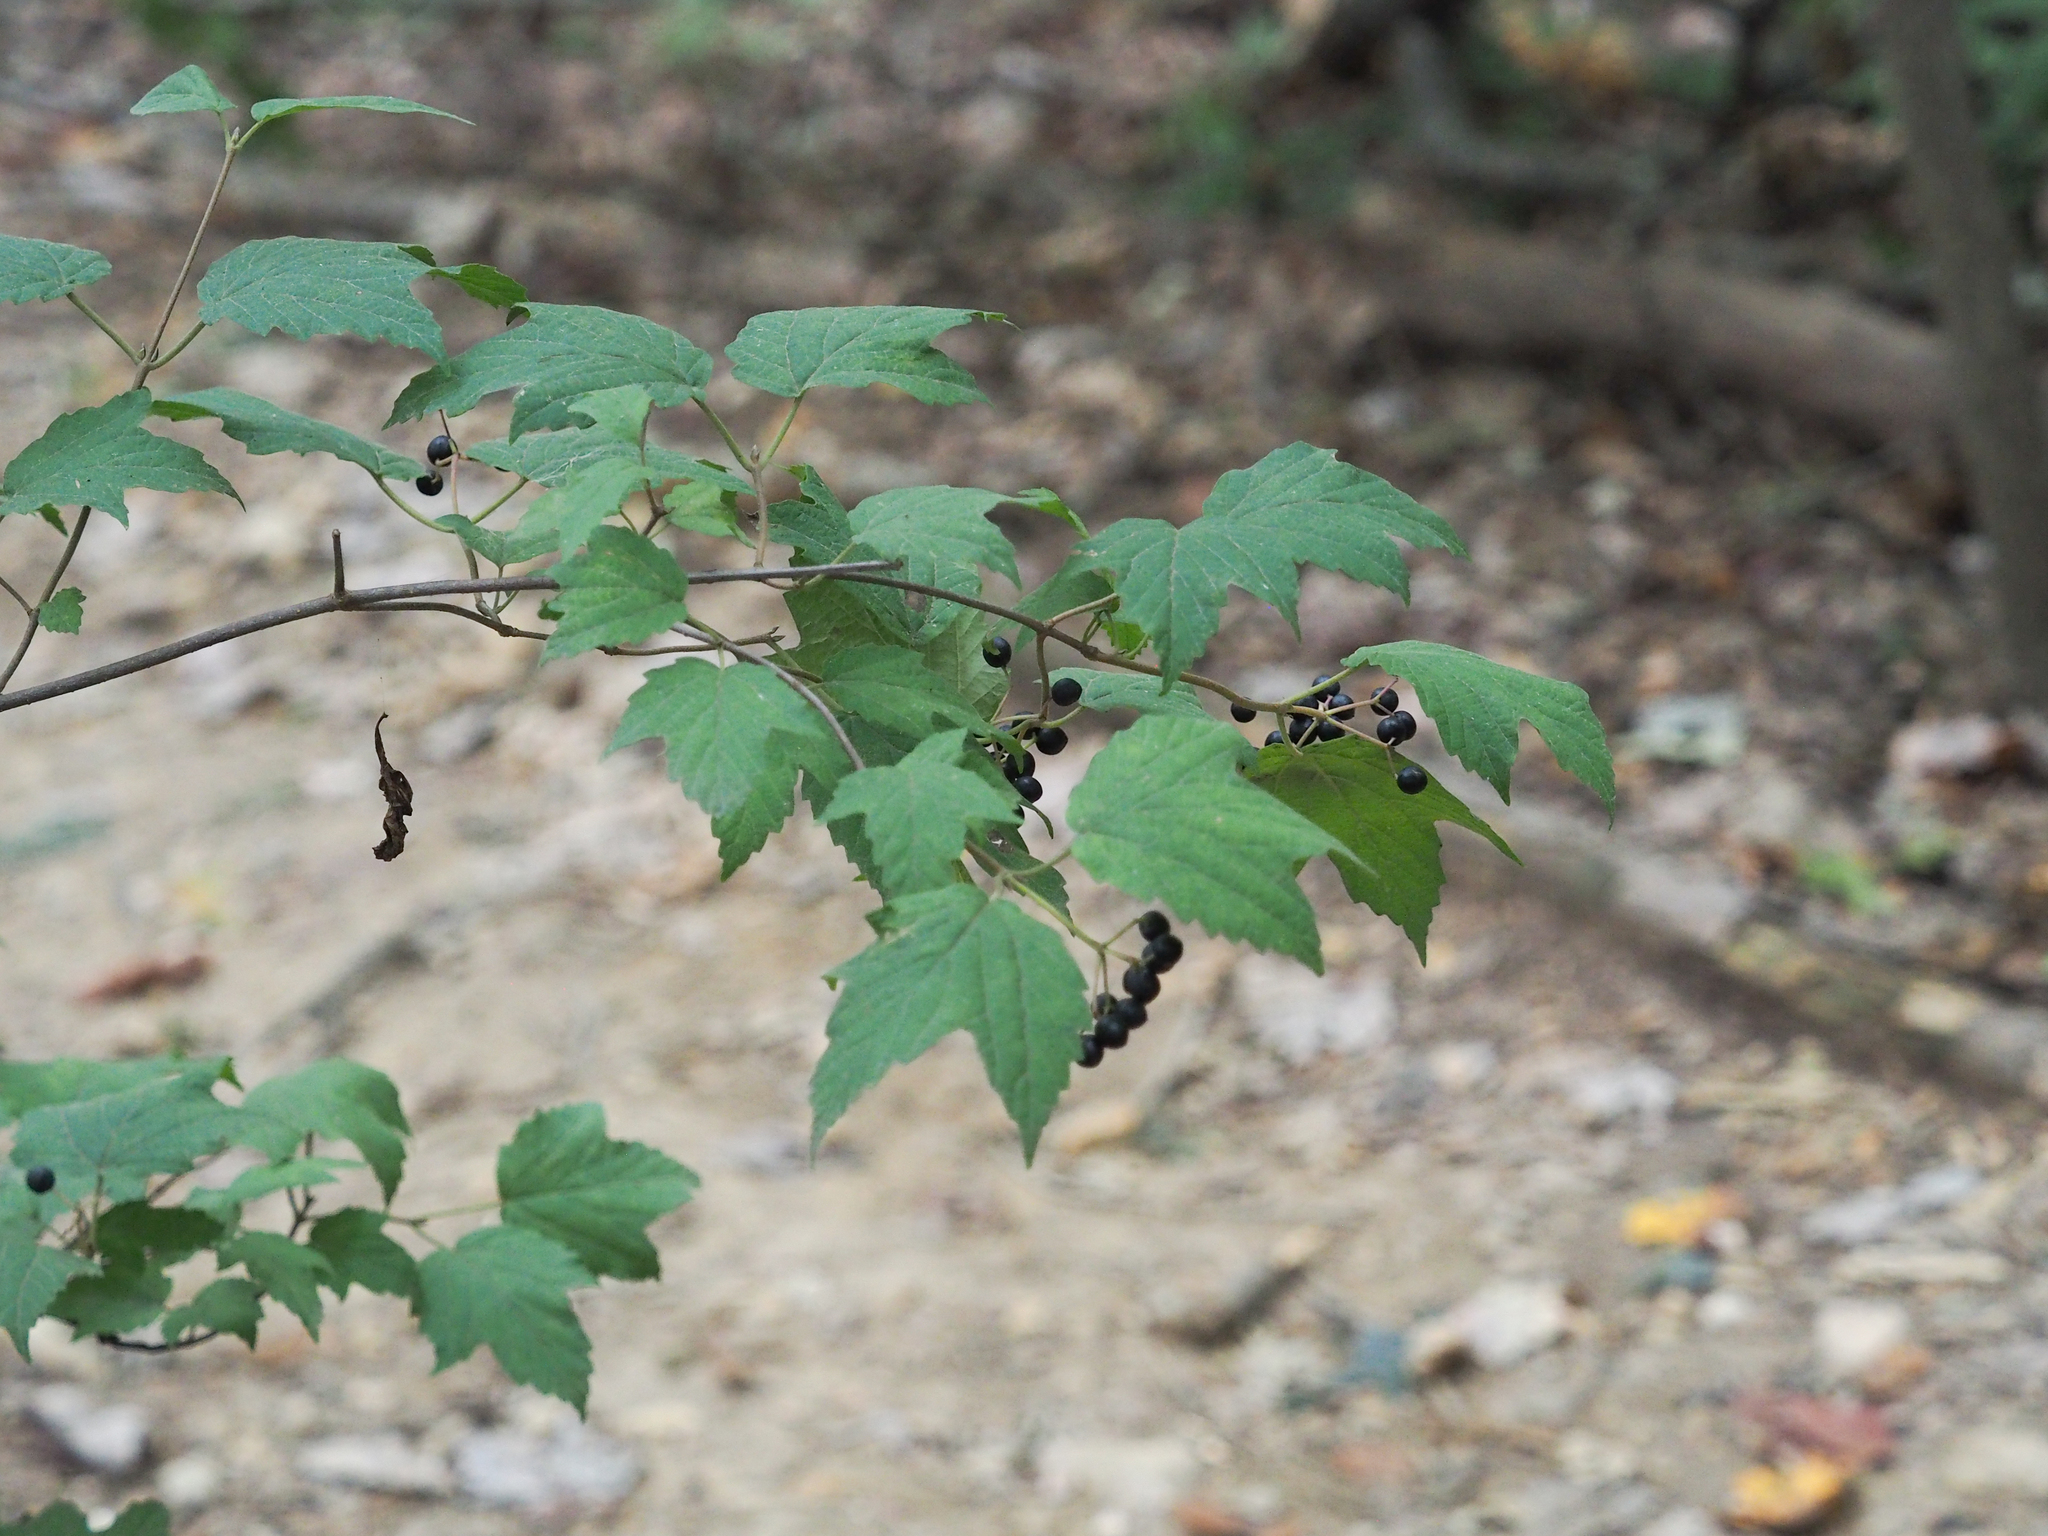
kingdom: Plantae
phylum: Tracheophyta
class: Magnoliopsida
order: Dipsacales
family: Viburnaceae
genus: Viburnum
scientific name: Viburnum acerifolium
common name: Dockmackie
